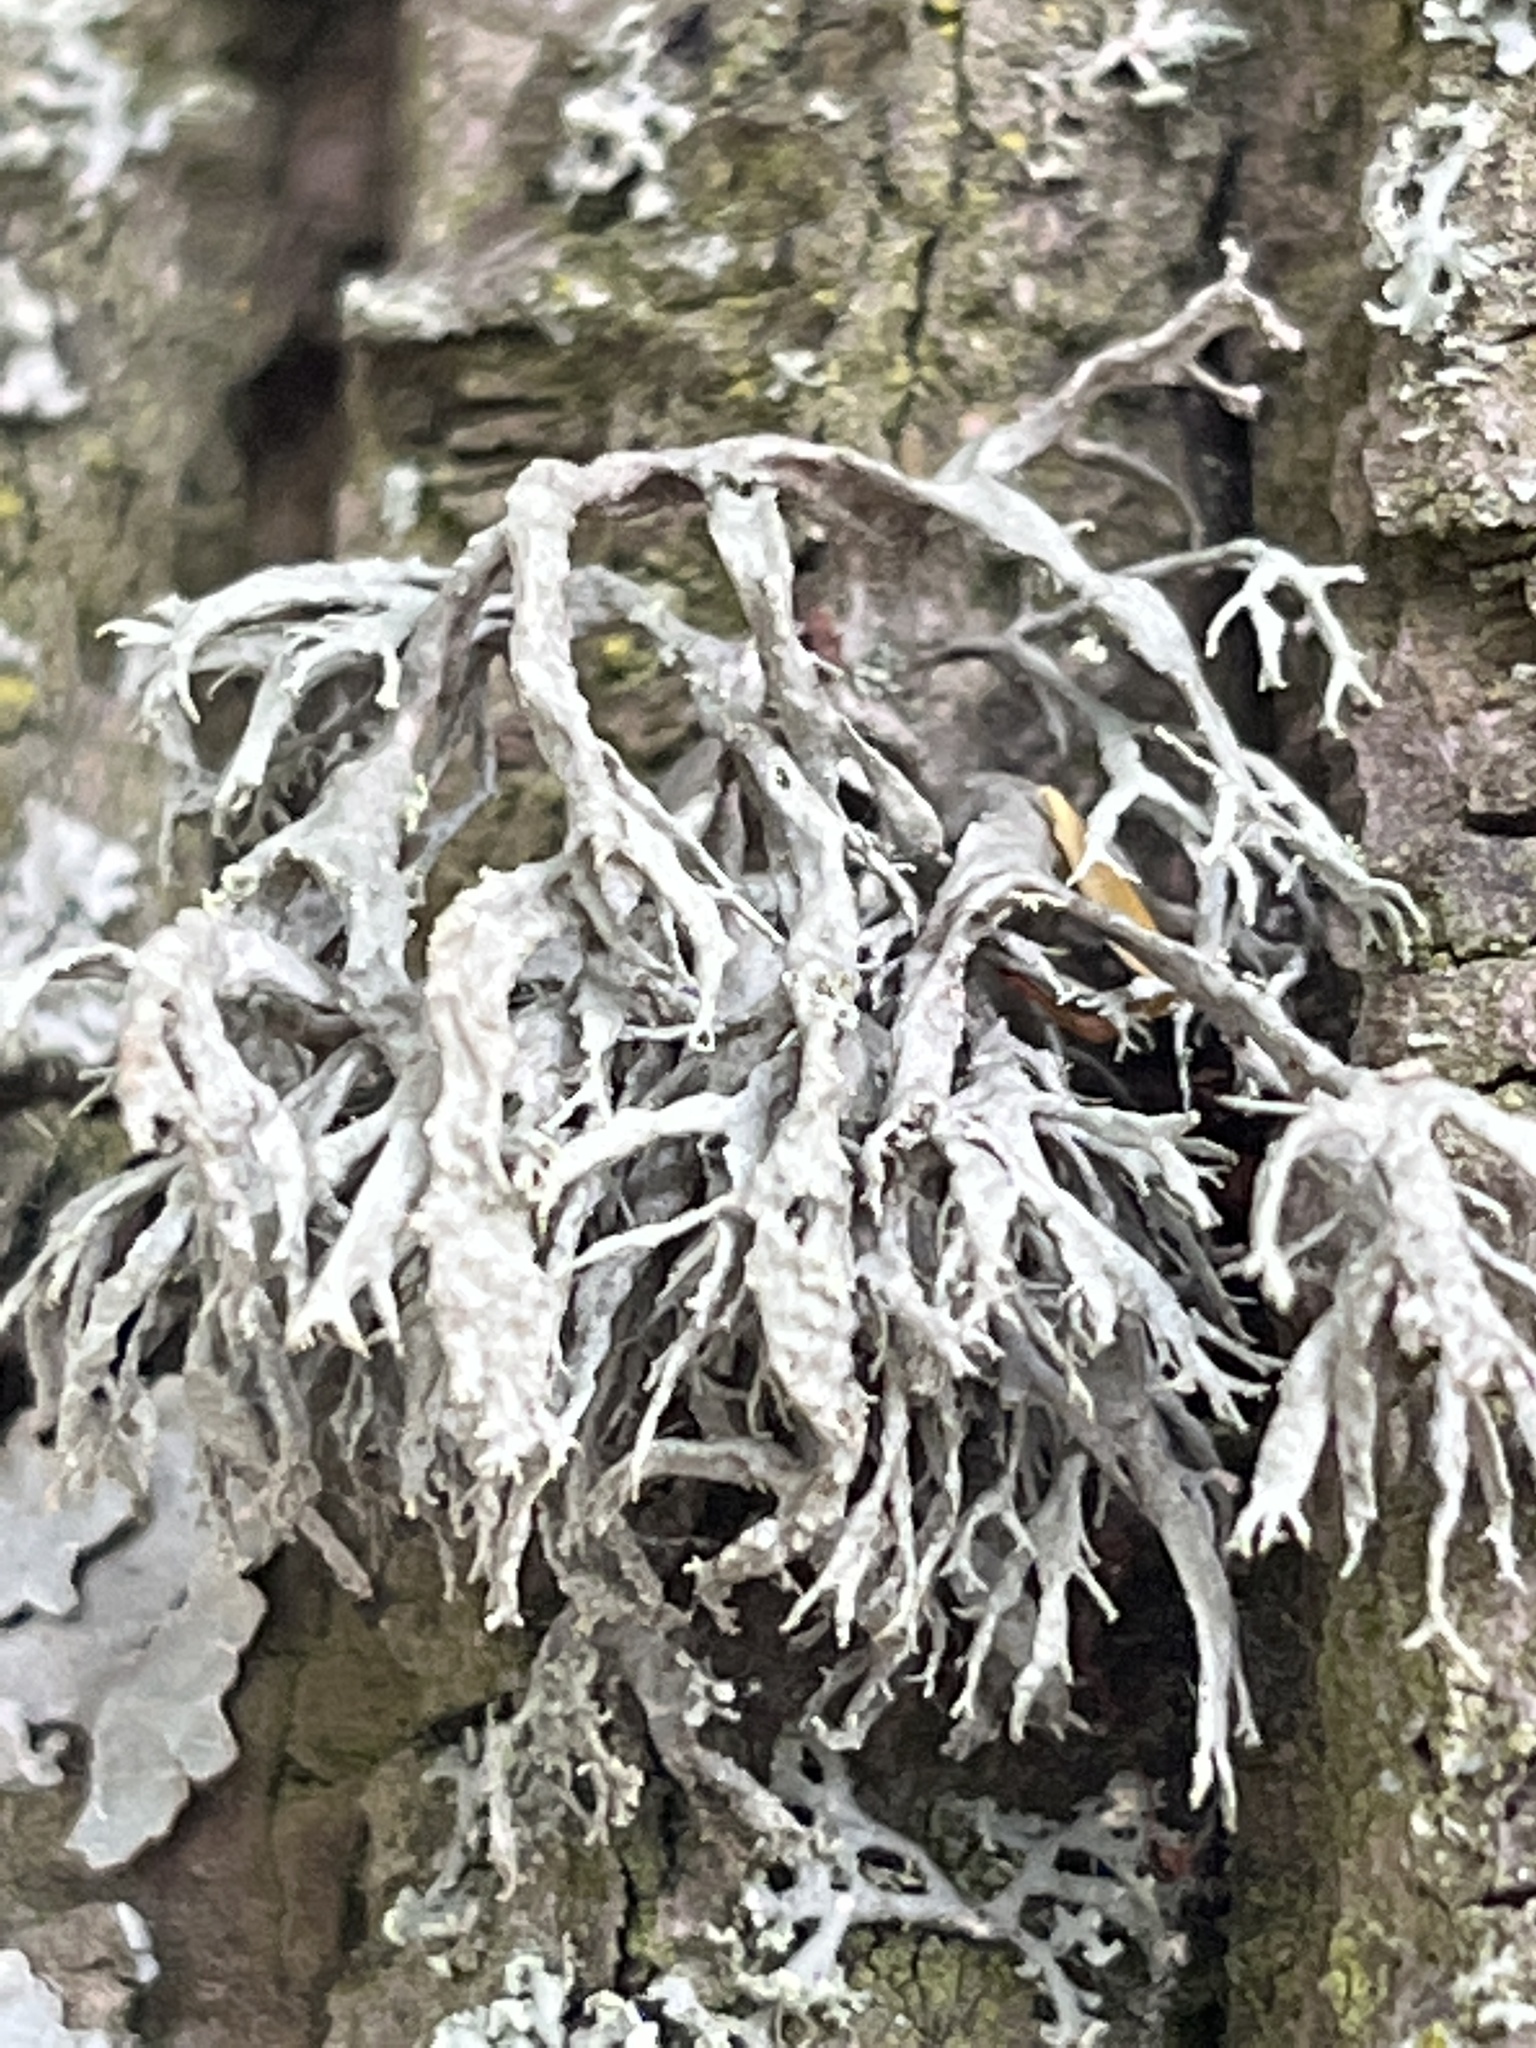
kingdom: Fungi
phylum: Ascomycota
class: Lecanoromycetes
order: Lecanorales
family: Ramalinaceae
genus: Ramalina
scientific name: Ramalina farinacea
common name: Farinose cartilage lichen
